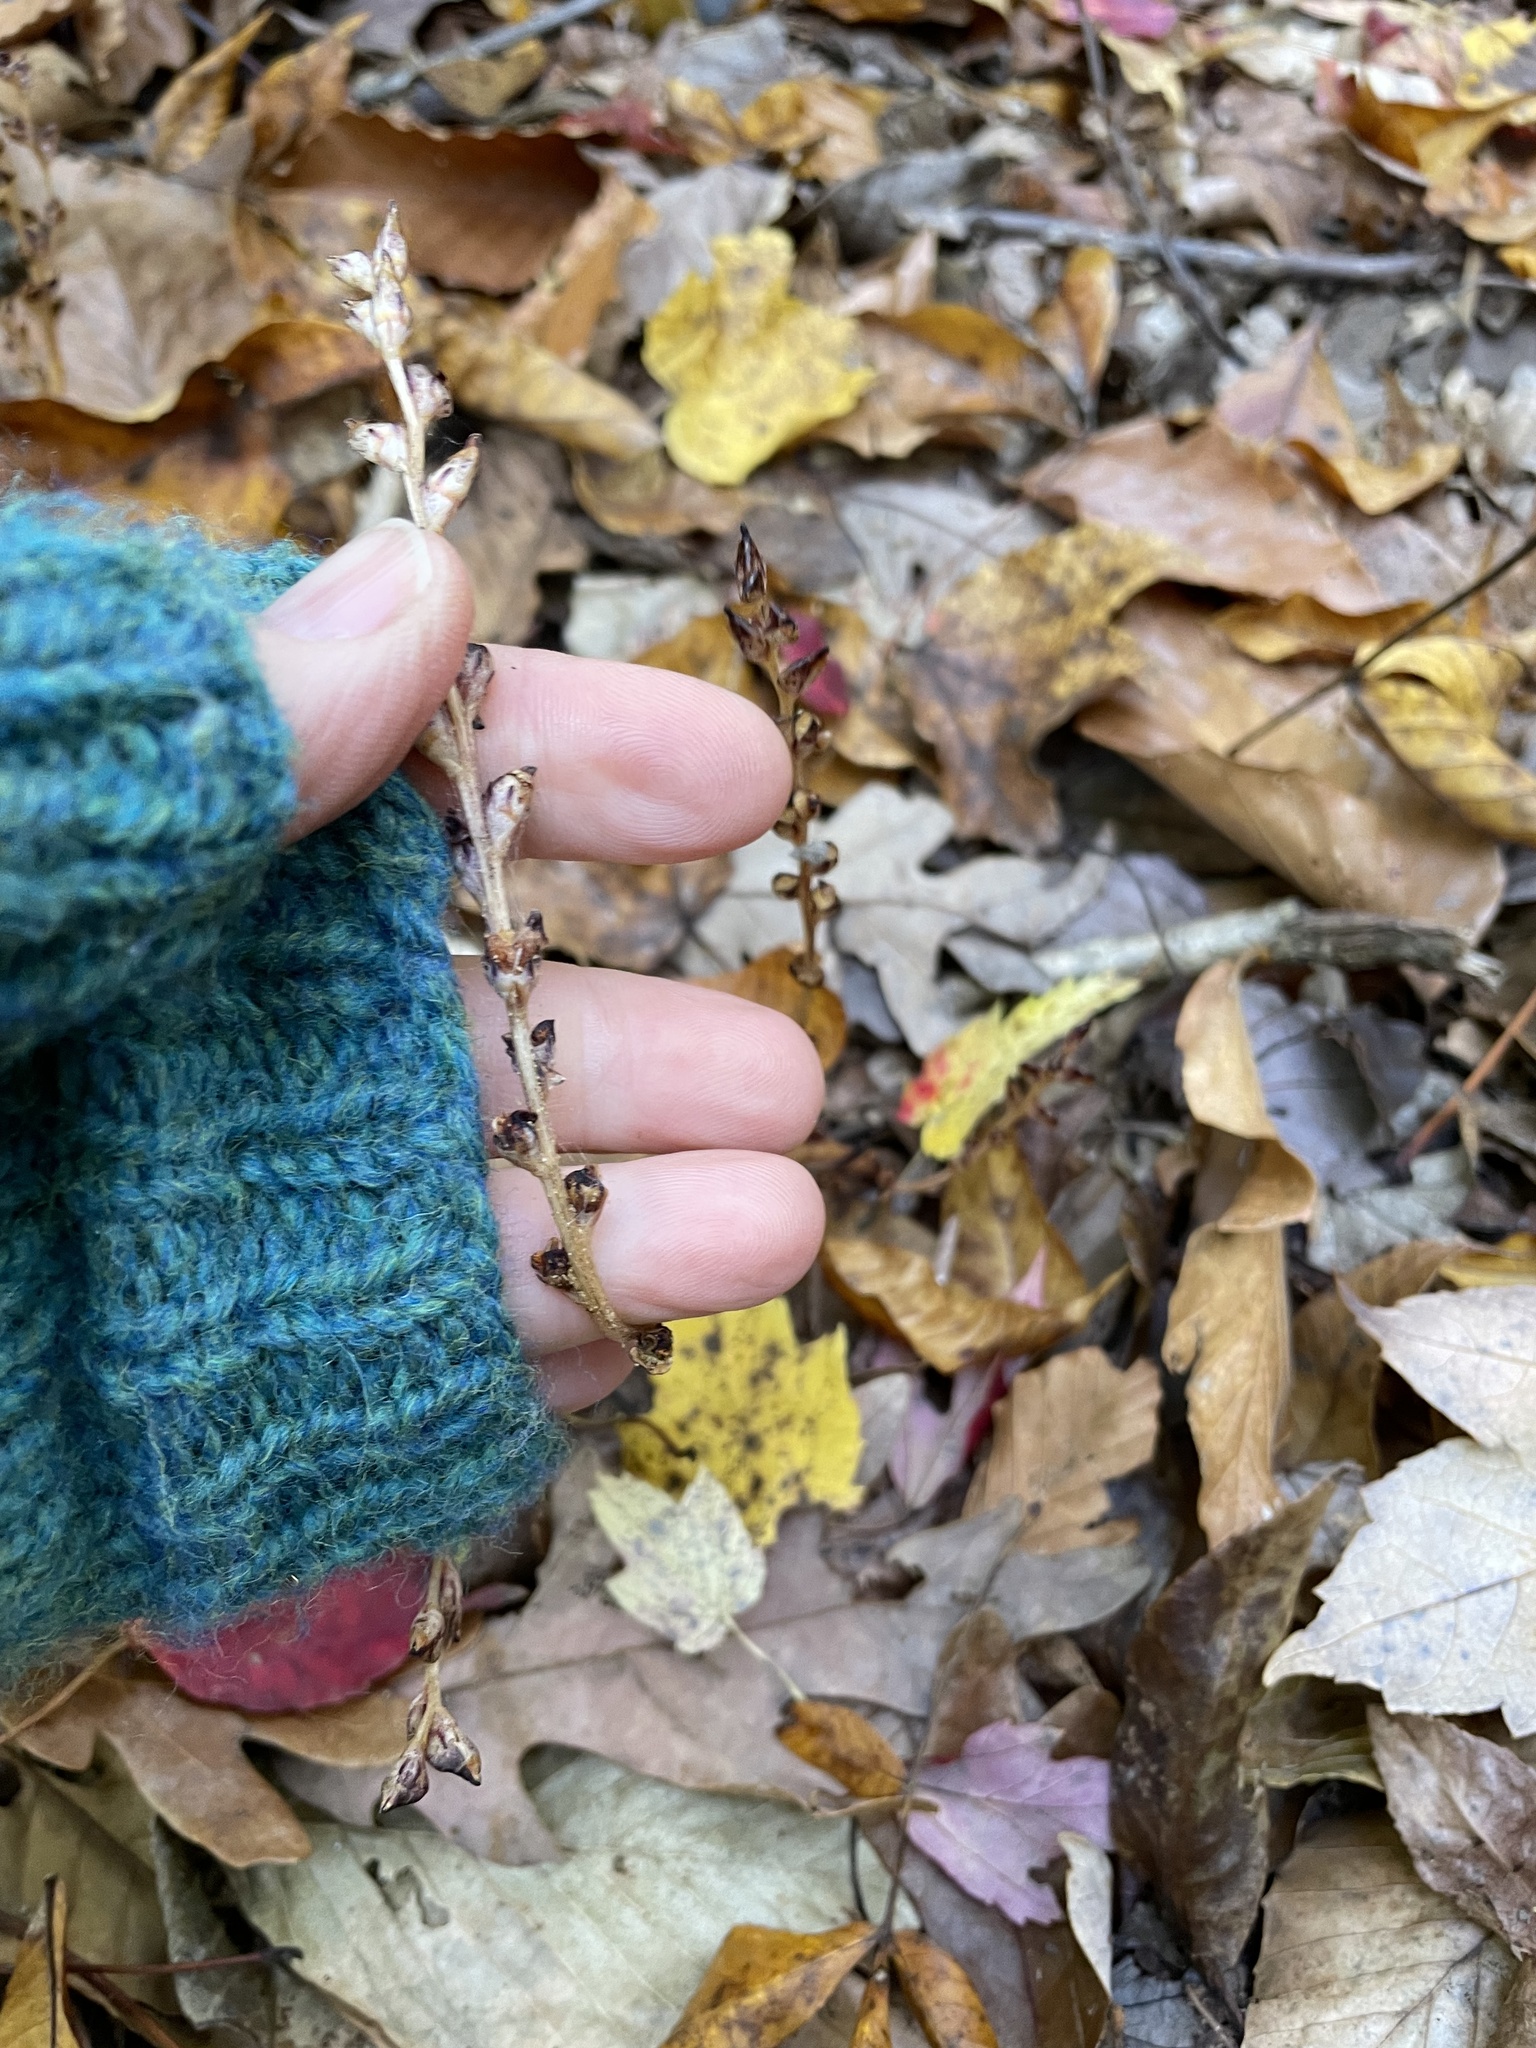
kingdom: Plantae
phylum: Tracheophyta
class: Magnoliopsida
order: Lamiales
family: Orobanchaceae
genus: Epifagus
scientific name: Epifagus virginiana
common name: Beechdrops
